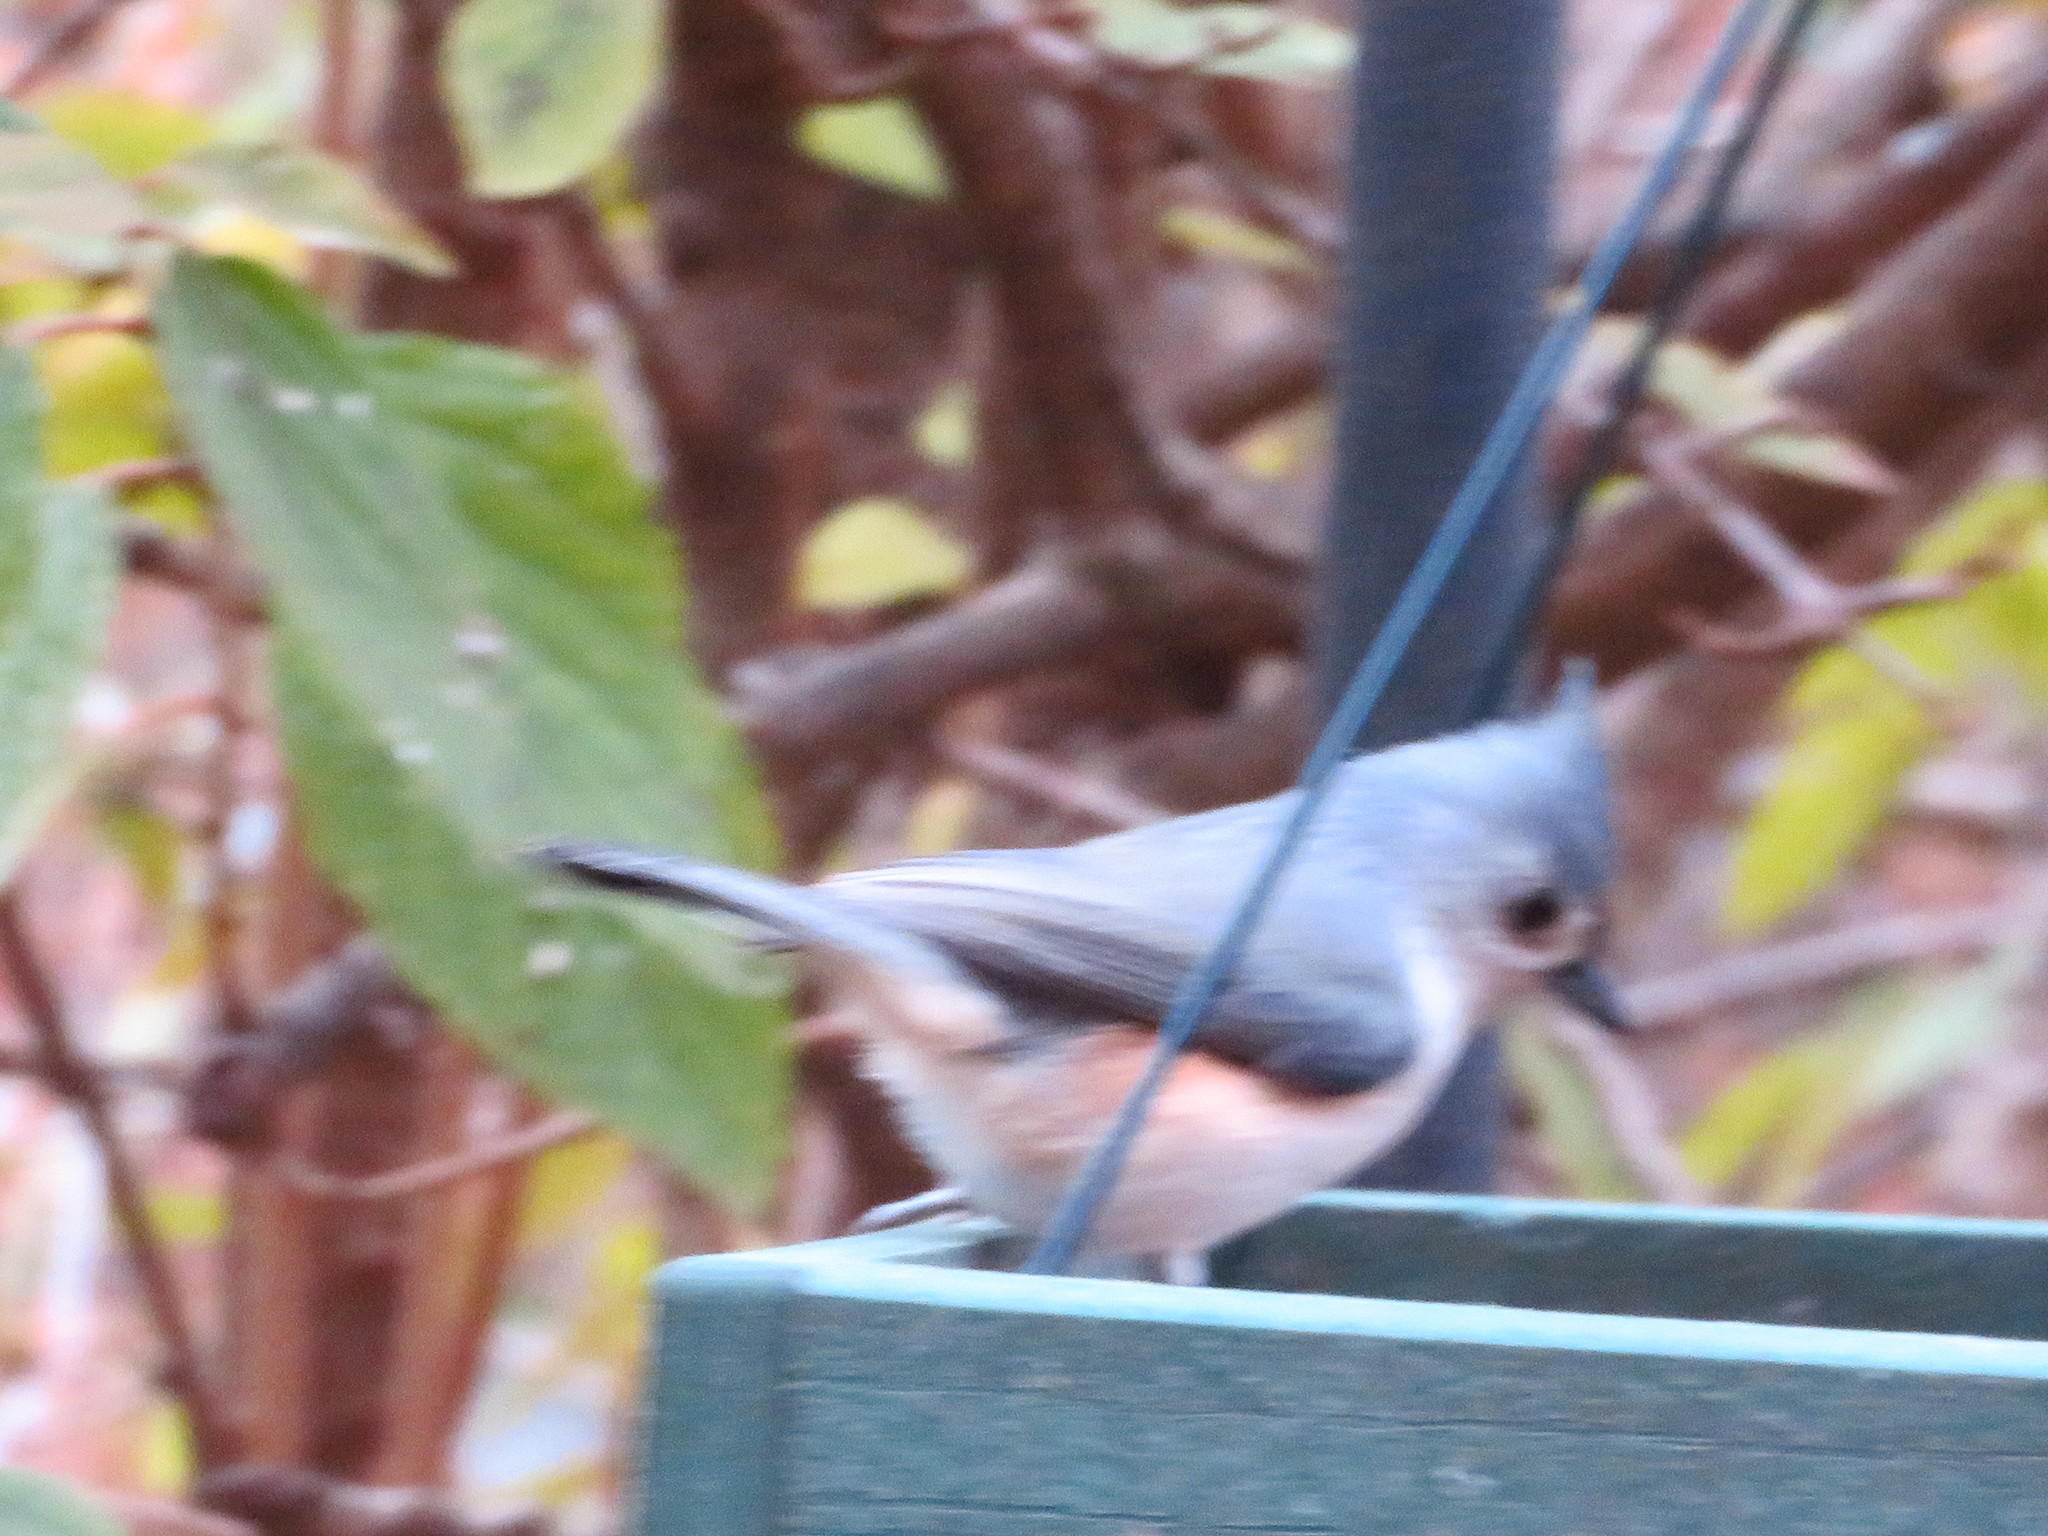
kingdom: Animalia
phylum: Chordata
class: Aves
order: Passeriformes
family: Paridae
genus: Baeolophus
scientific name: Baeolophus bicolor
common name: Tufted titmouse
